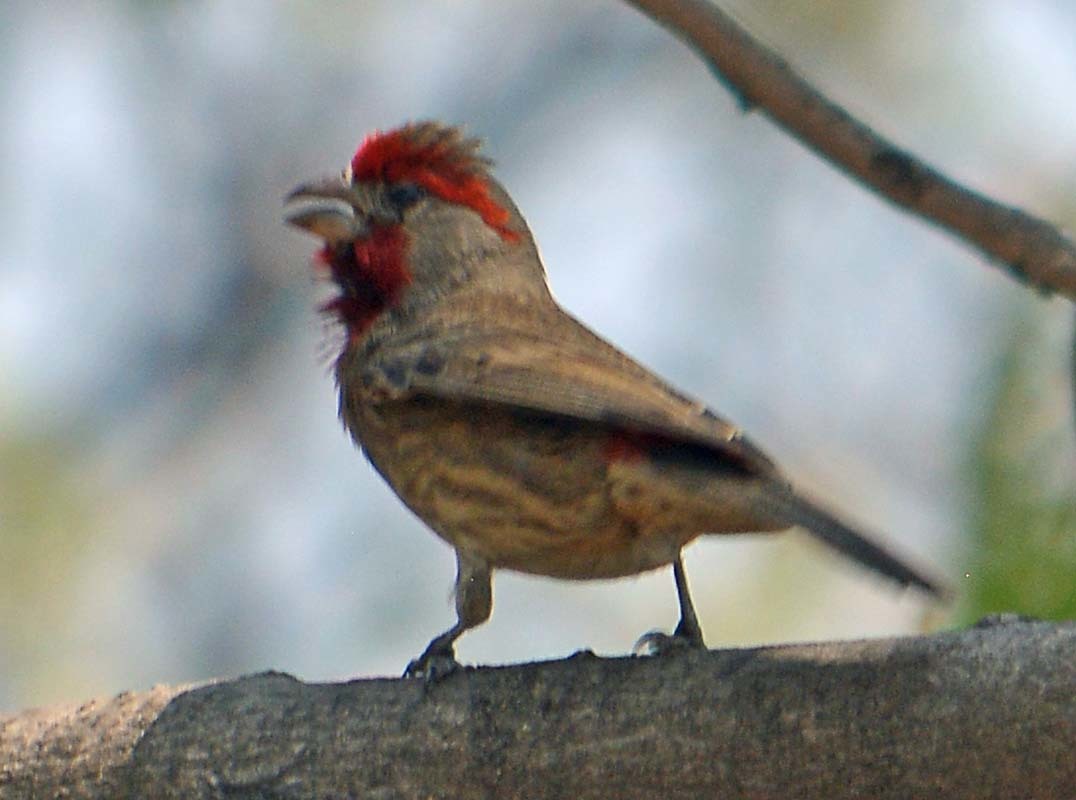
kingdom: Animalia
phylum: Chordata
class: Aves
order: Passeriformes
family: Fringillidae
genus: Haemorhous
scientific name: Haemorhous mexicanus
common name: House finch
